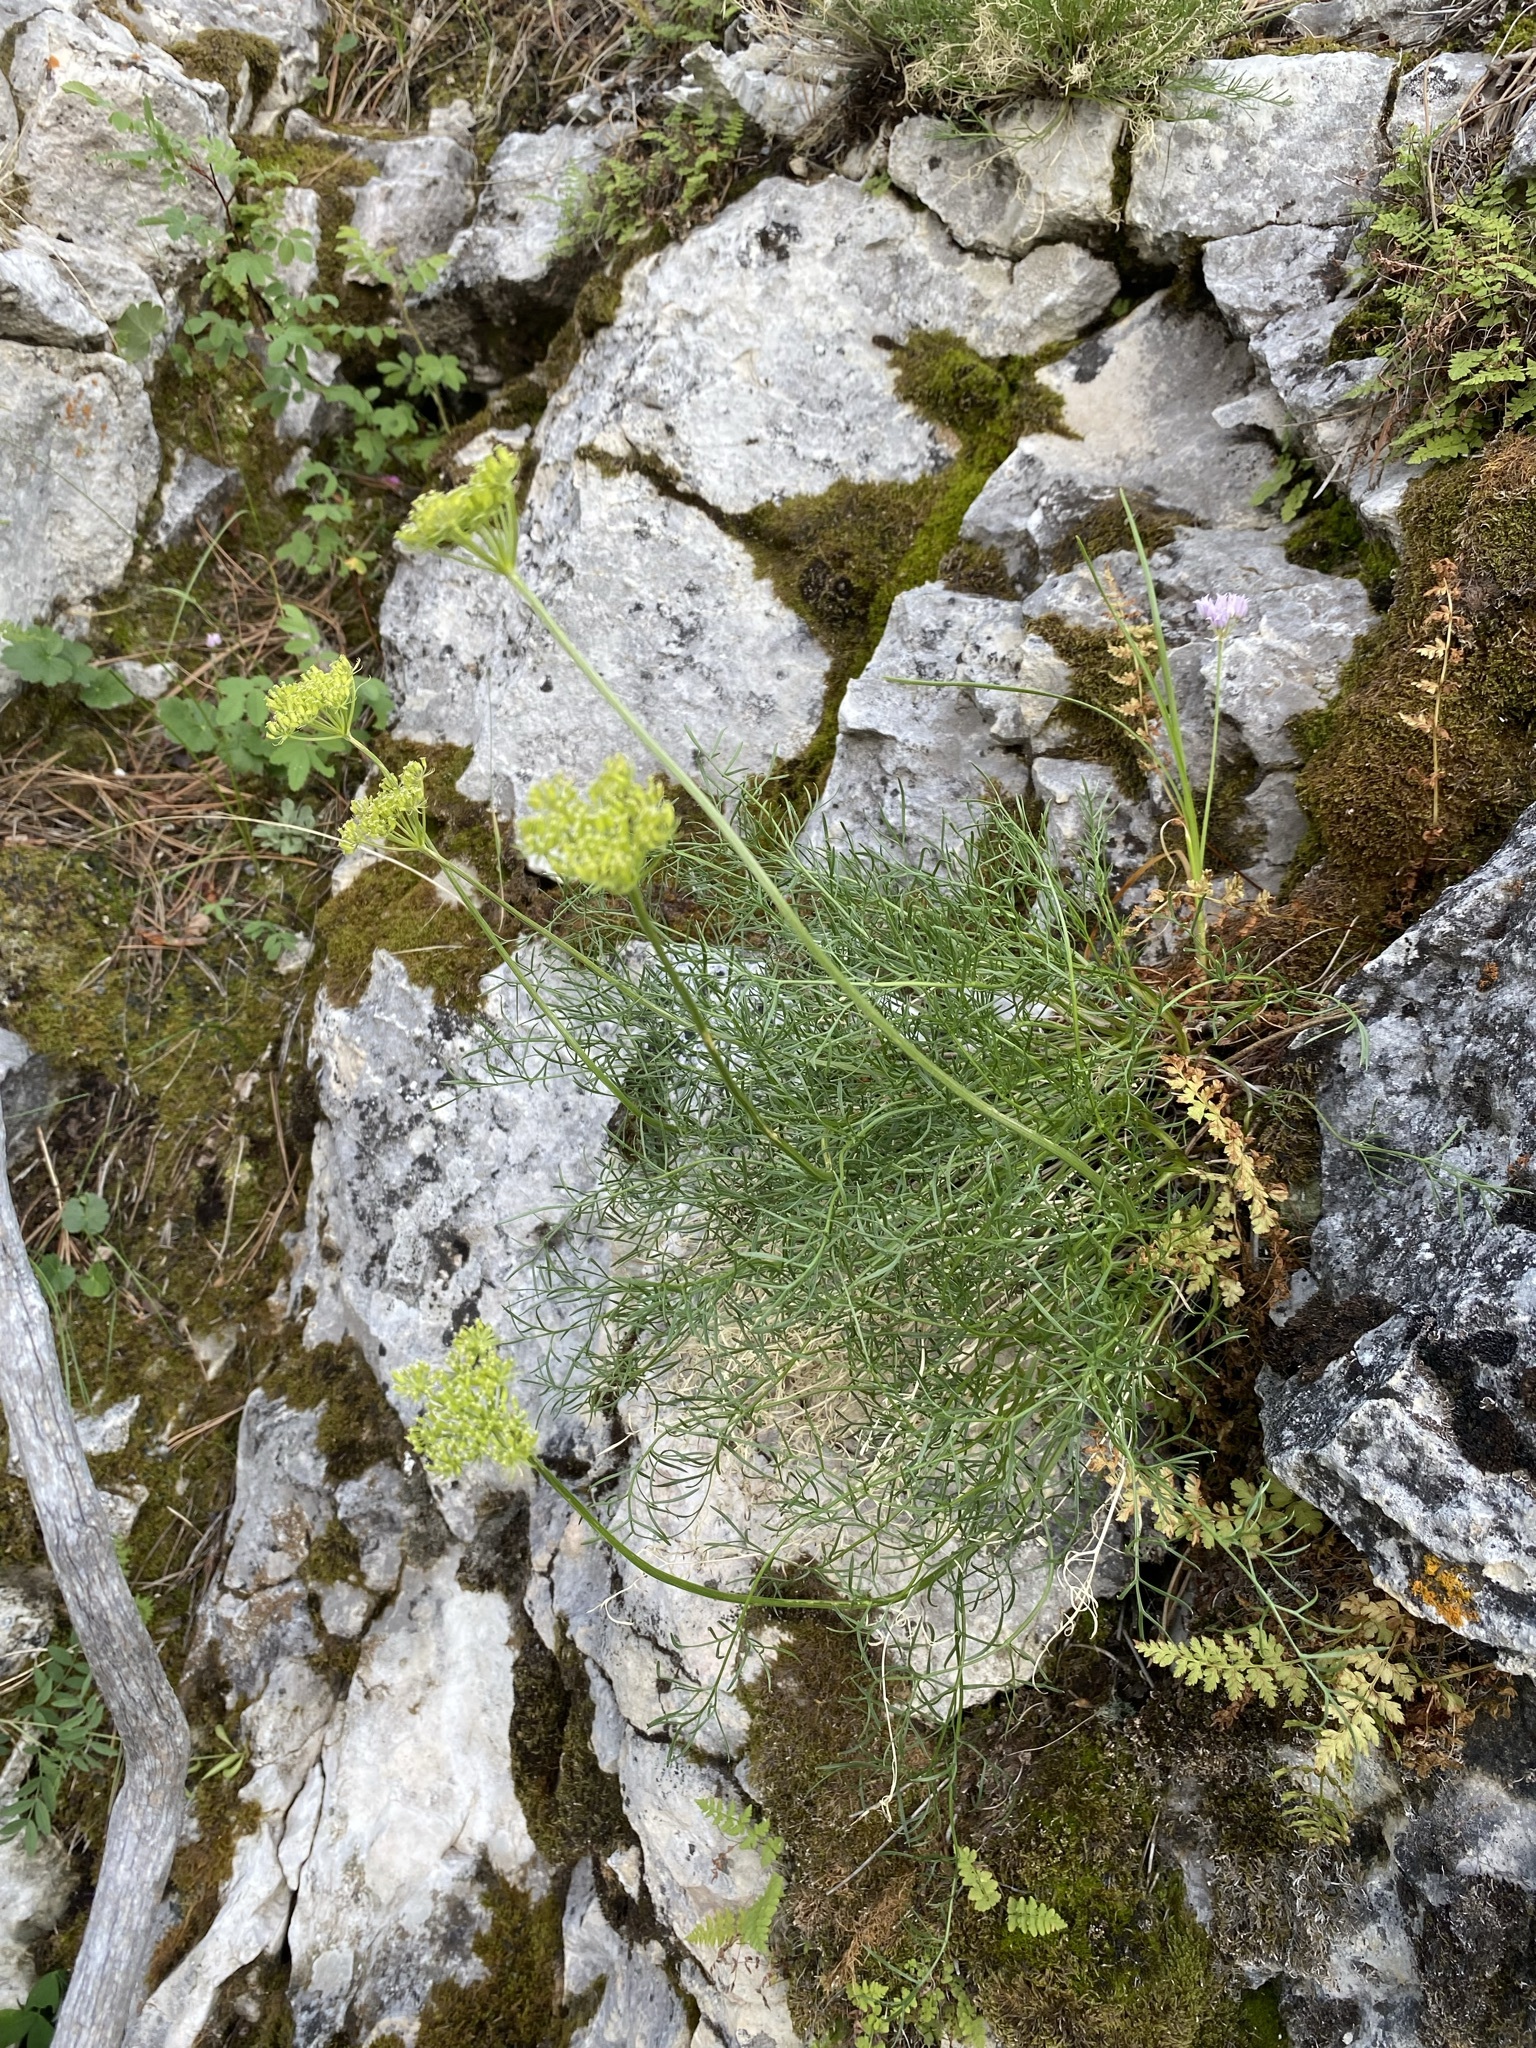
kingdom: Plantae
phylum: Tracheophyta
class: Magnoliopsida
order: Apiales
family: Apiaceae
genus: Musineon
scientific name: Musineon tenuifolium
